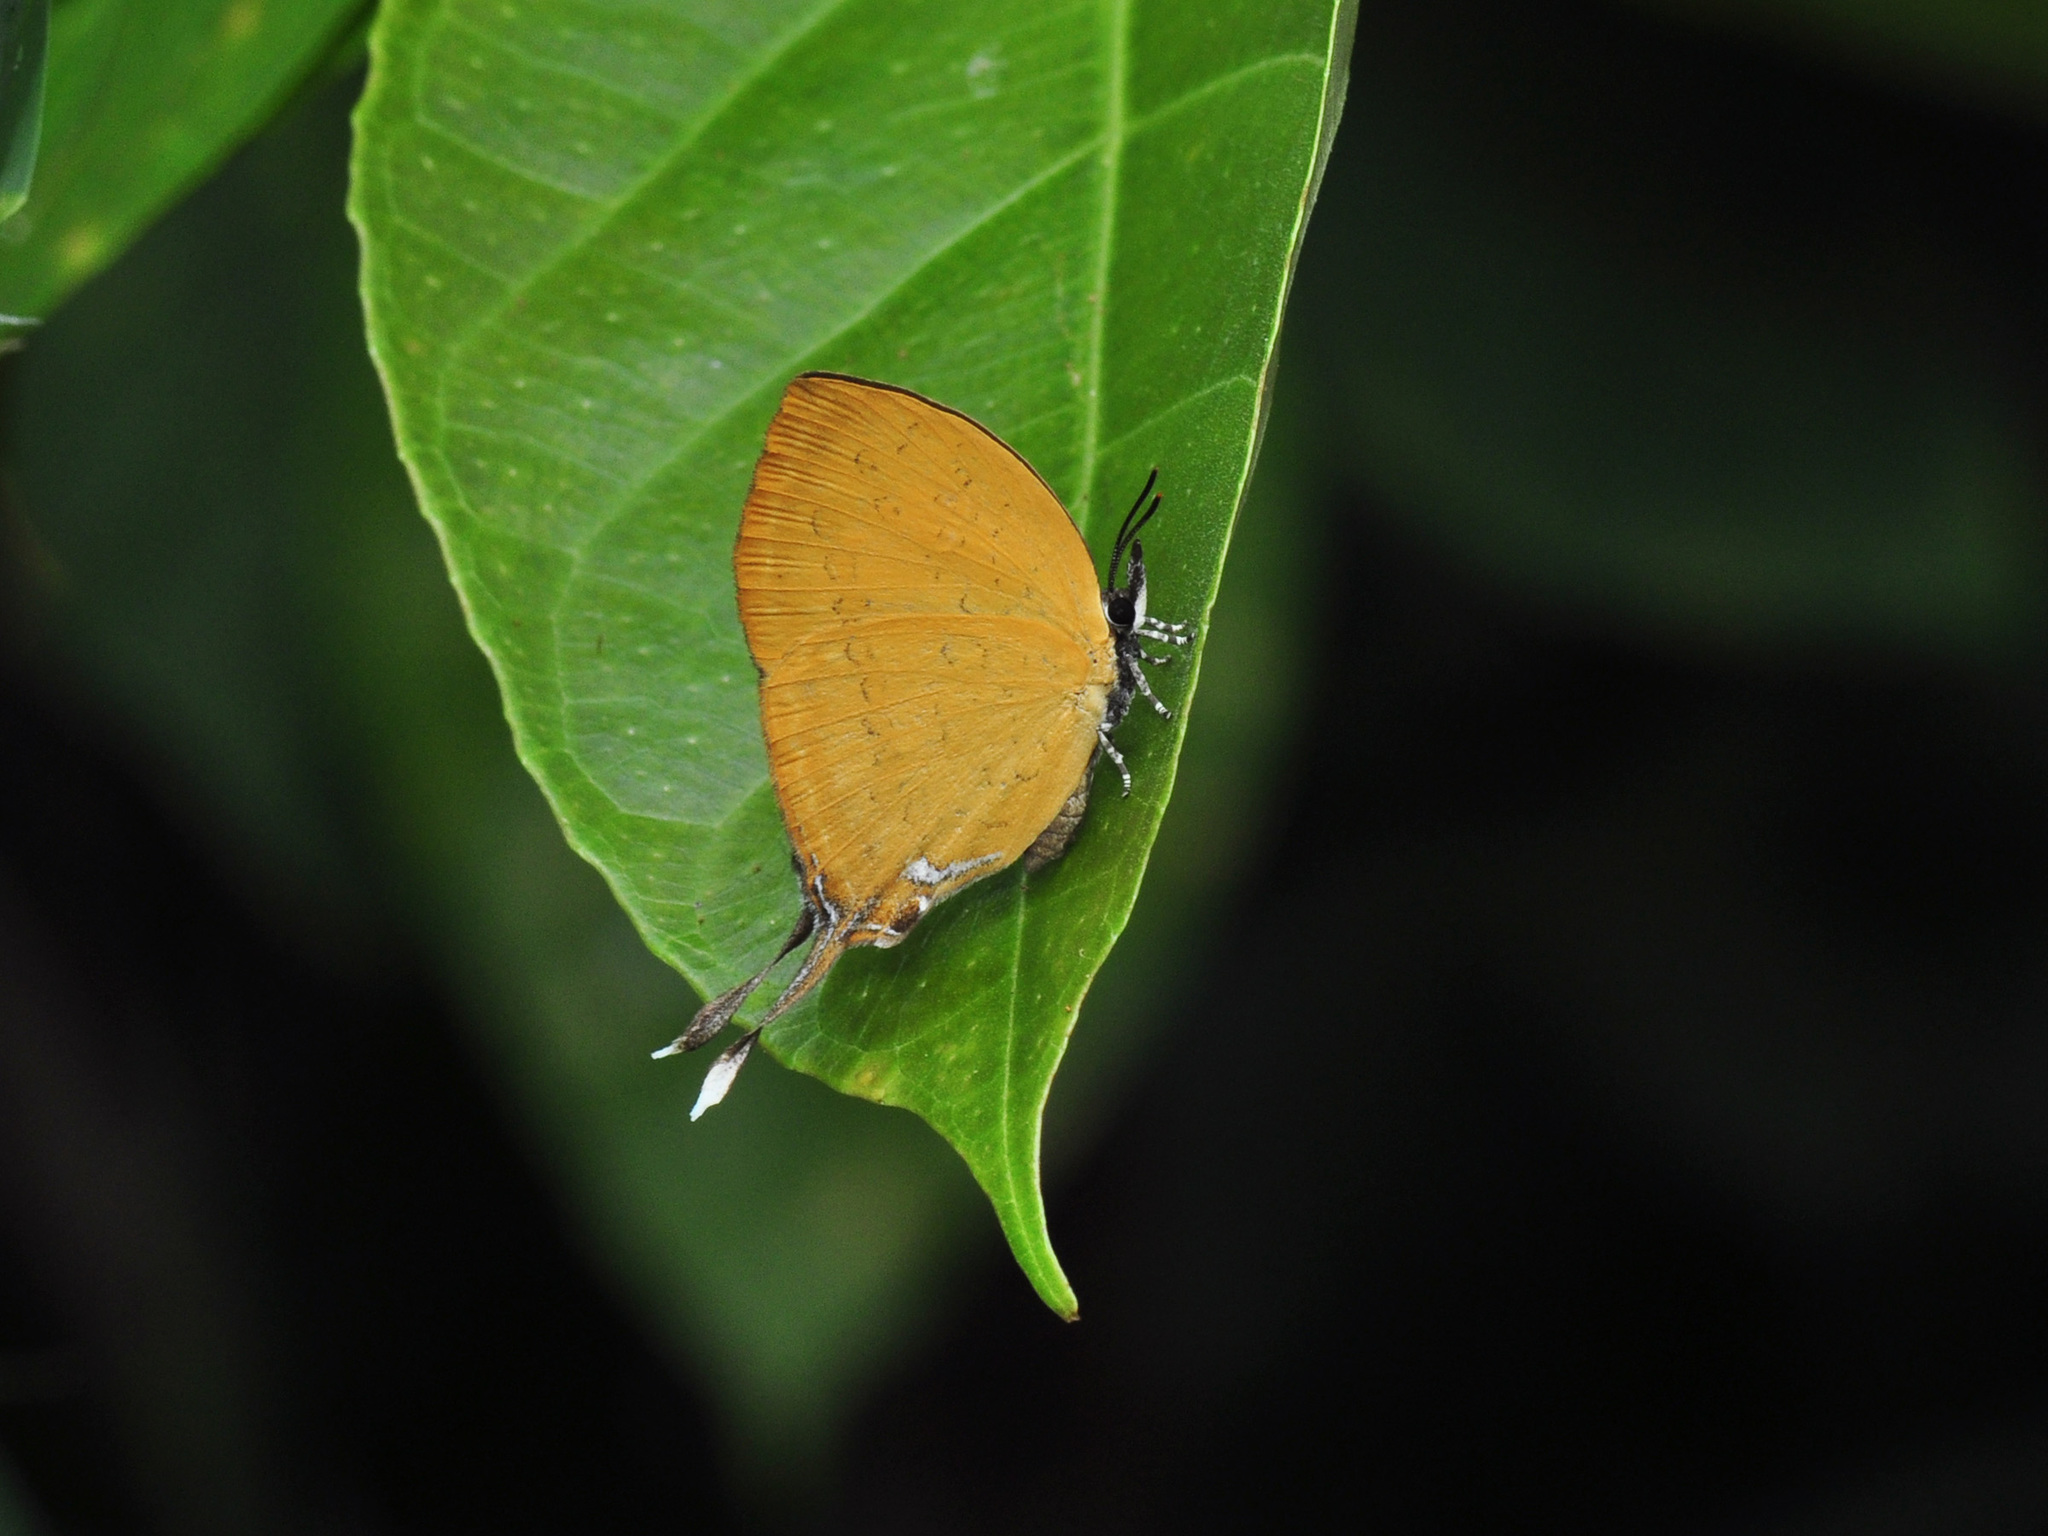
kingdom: Animalia
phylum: Arthropoda
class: Insecta
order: Lepidoptera
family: Lycaenidae
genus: Yasoda
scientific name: Yasoda pita
